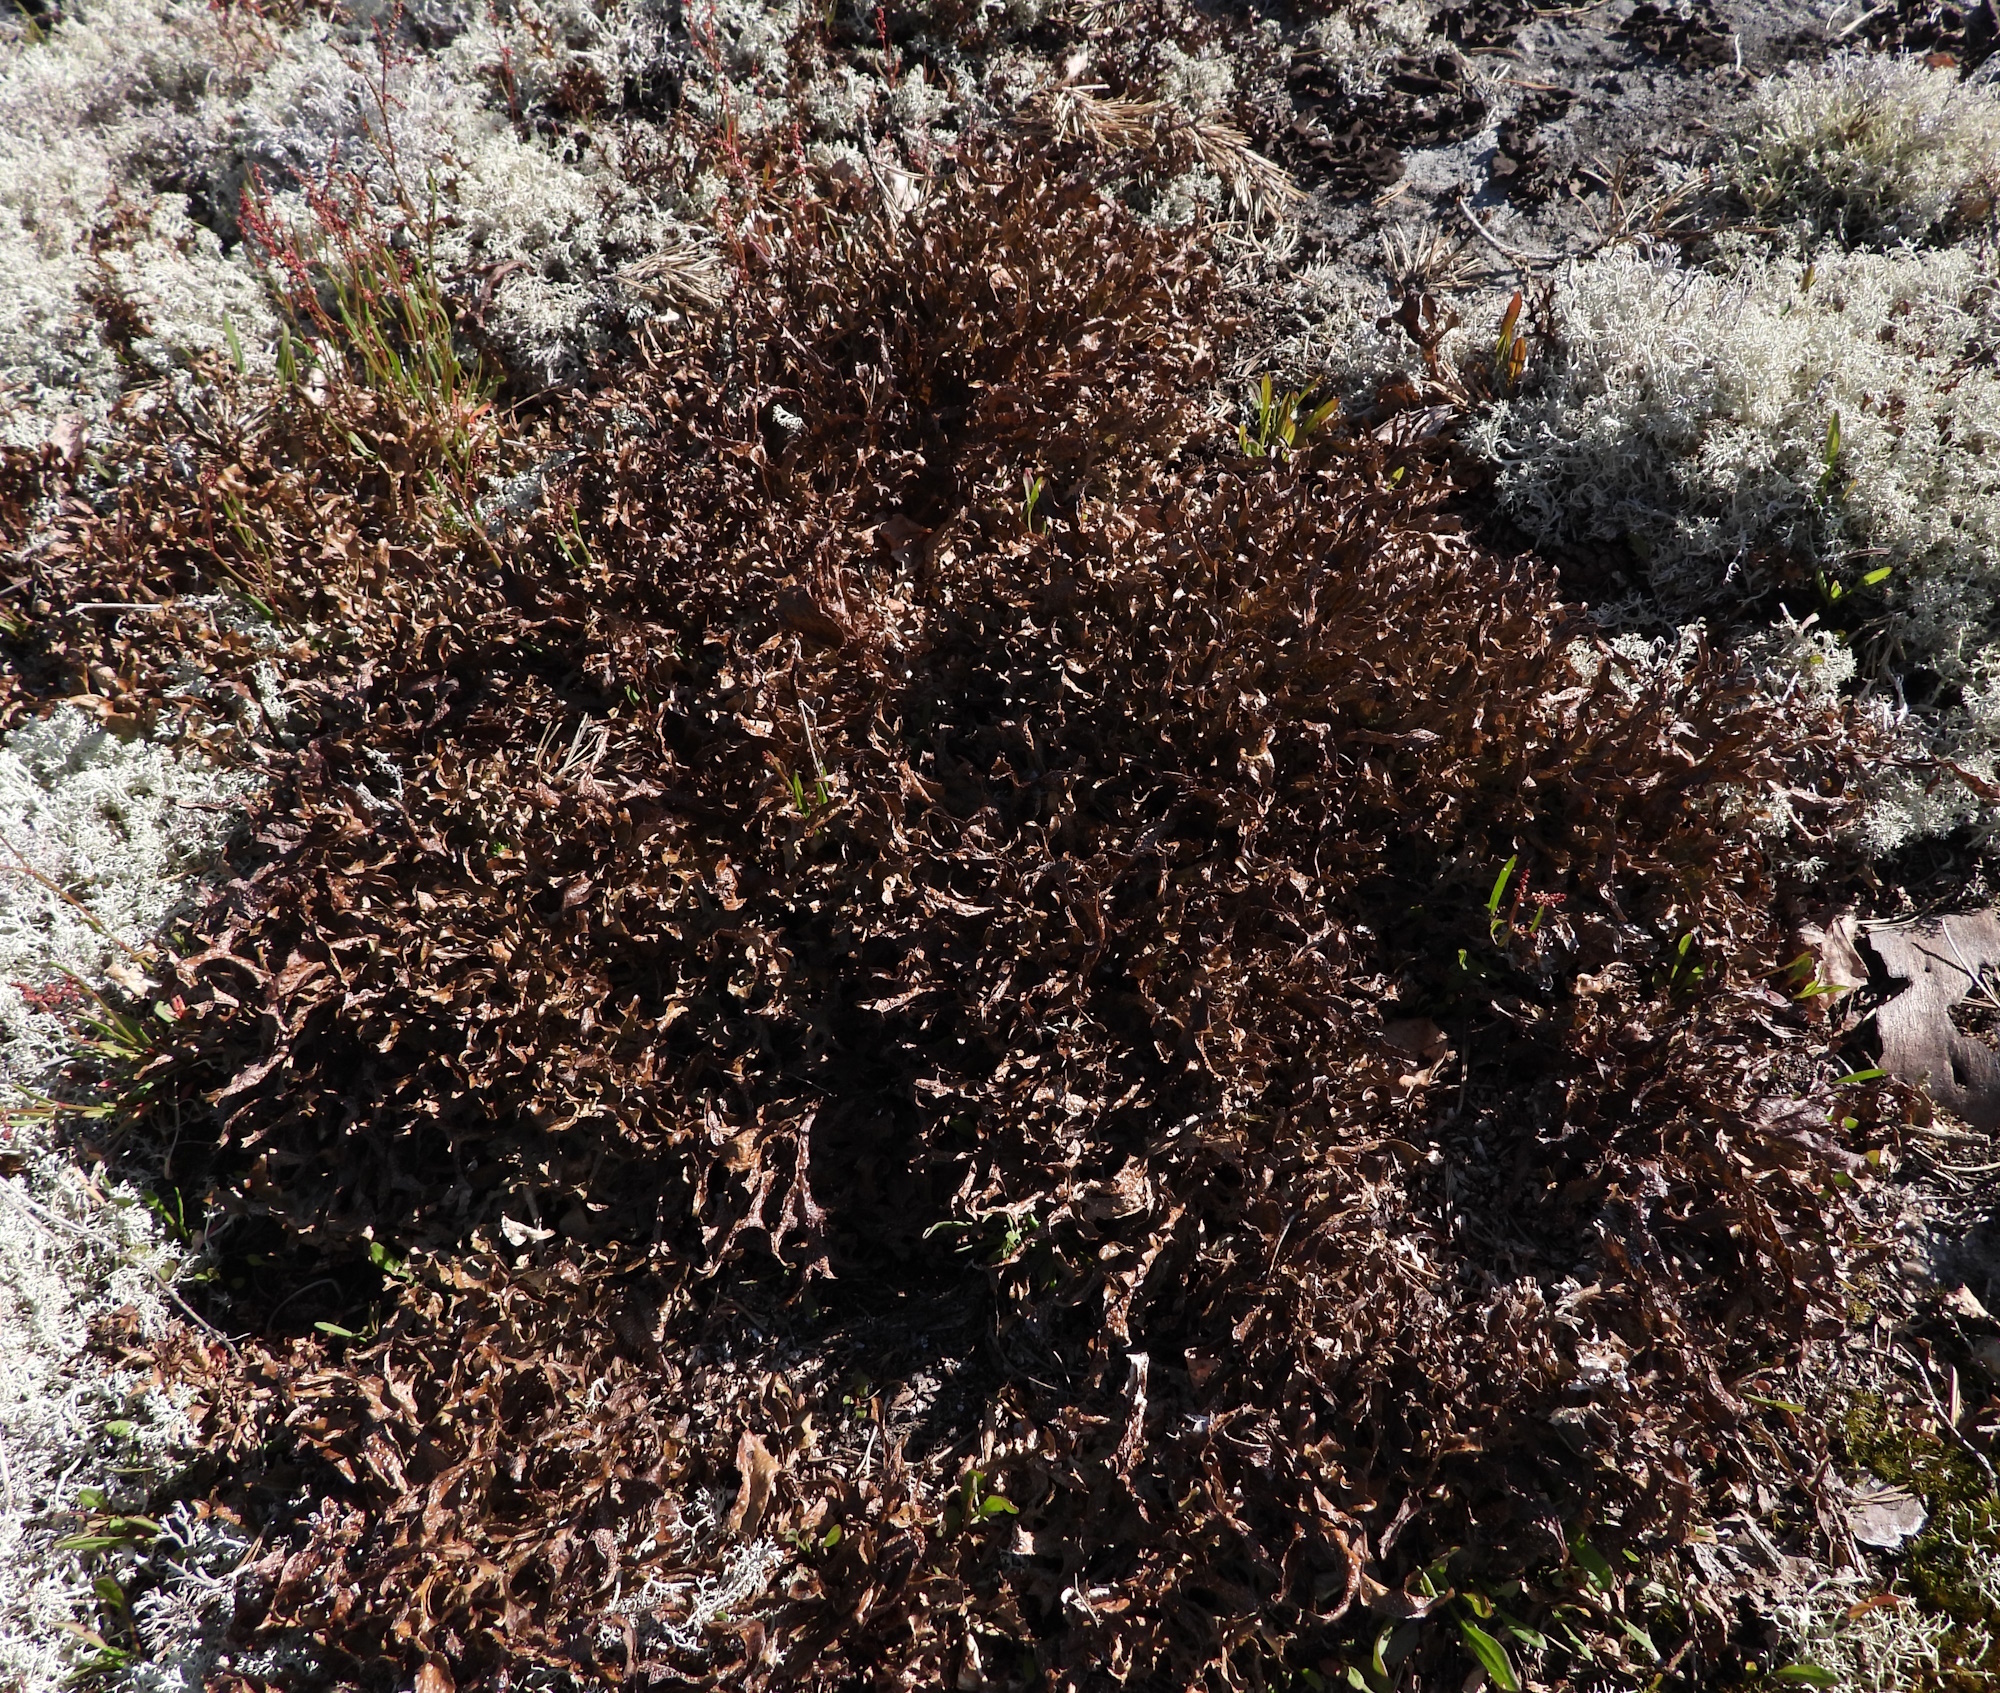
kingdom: Fungi
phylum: Ascomycota
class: Lecanoromycetes
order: Lecanorales
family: Parmeliaceae
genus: Cetraria
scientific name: Cetraria islandica
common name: Iceland lichen
